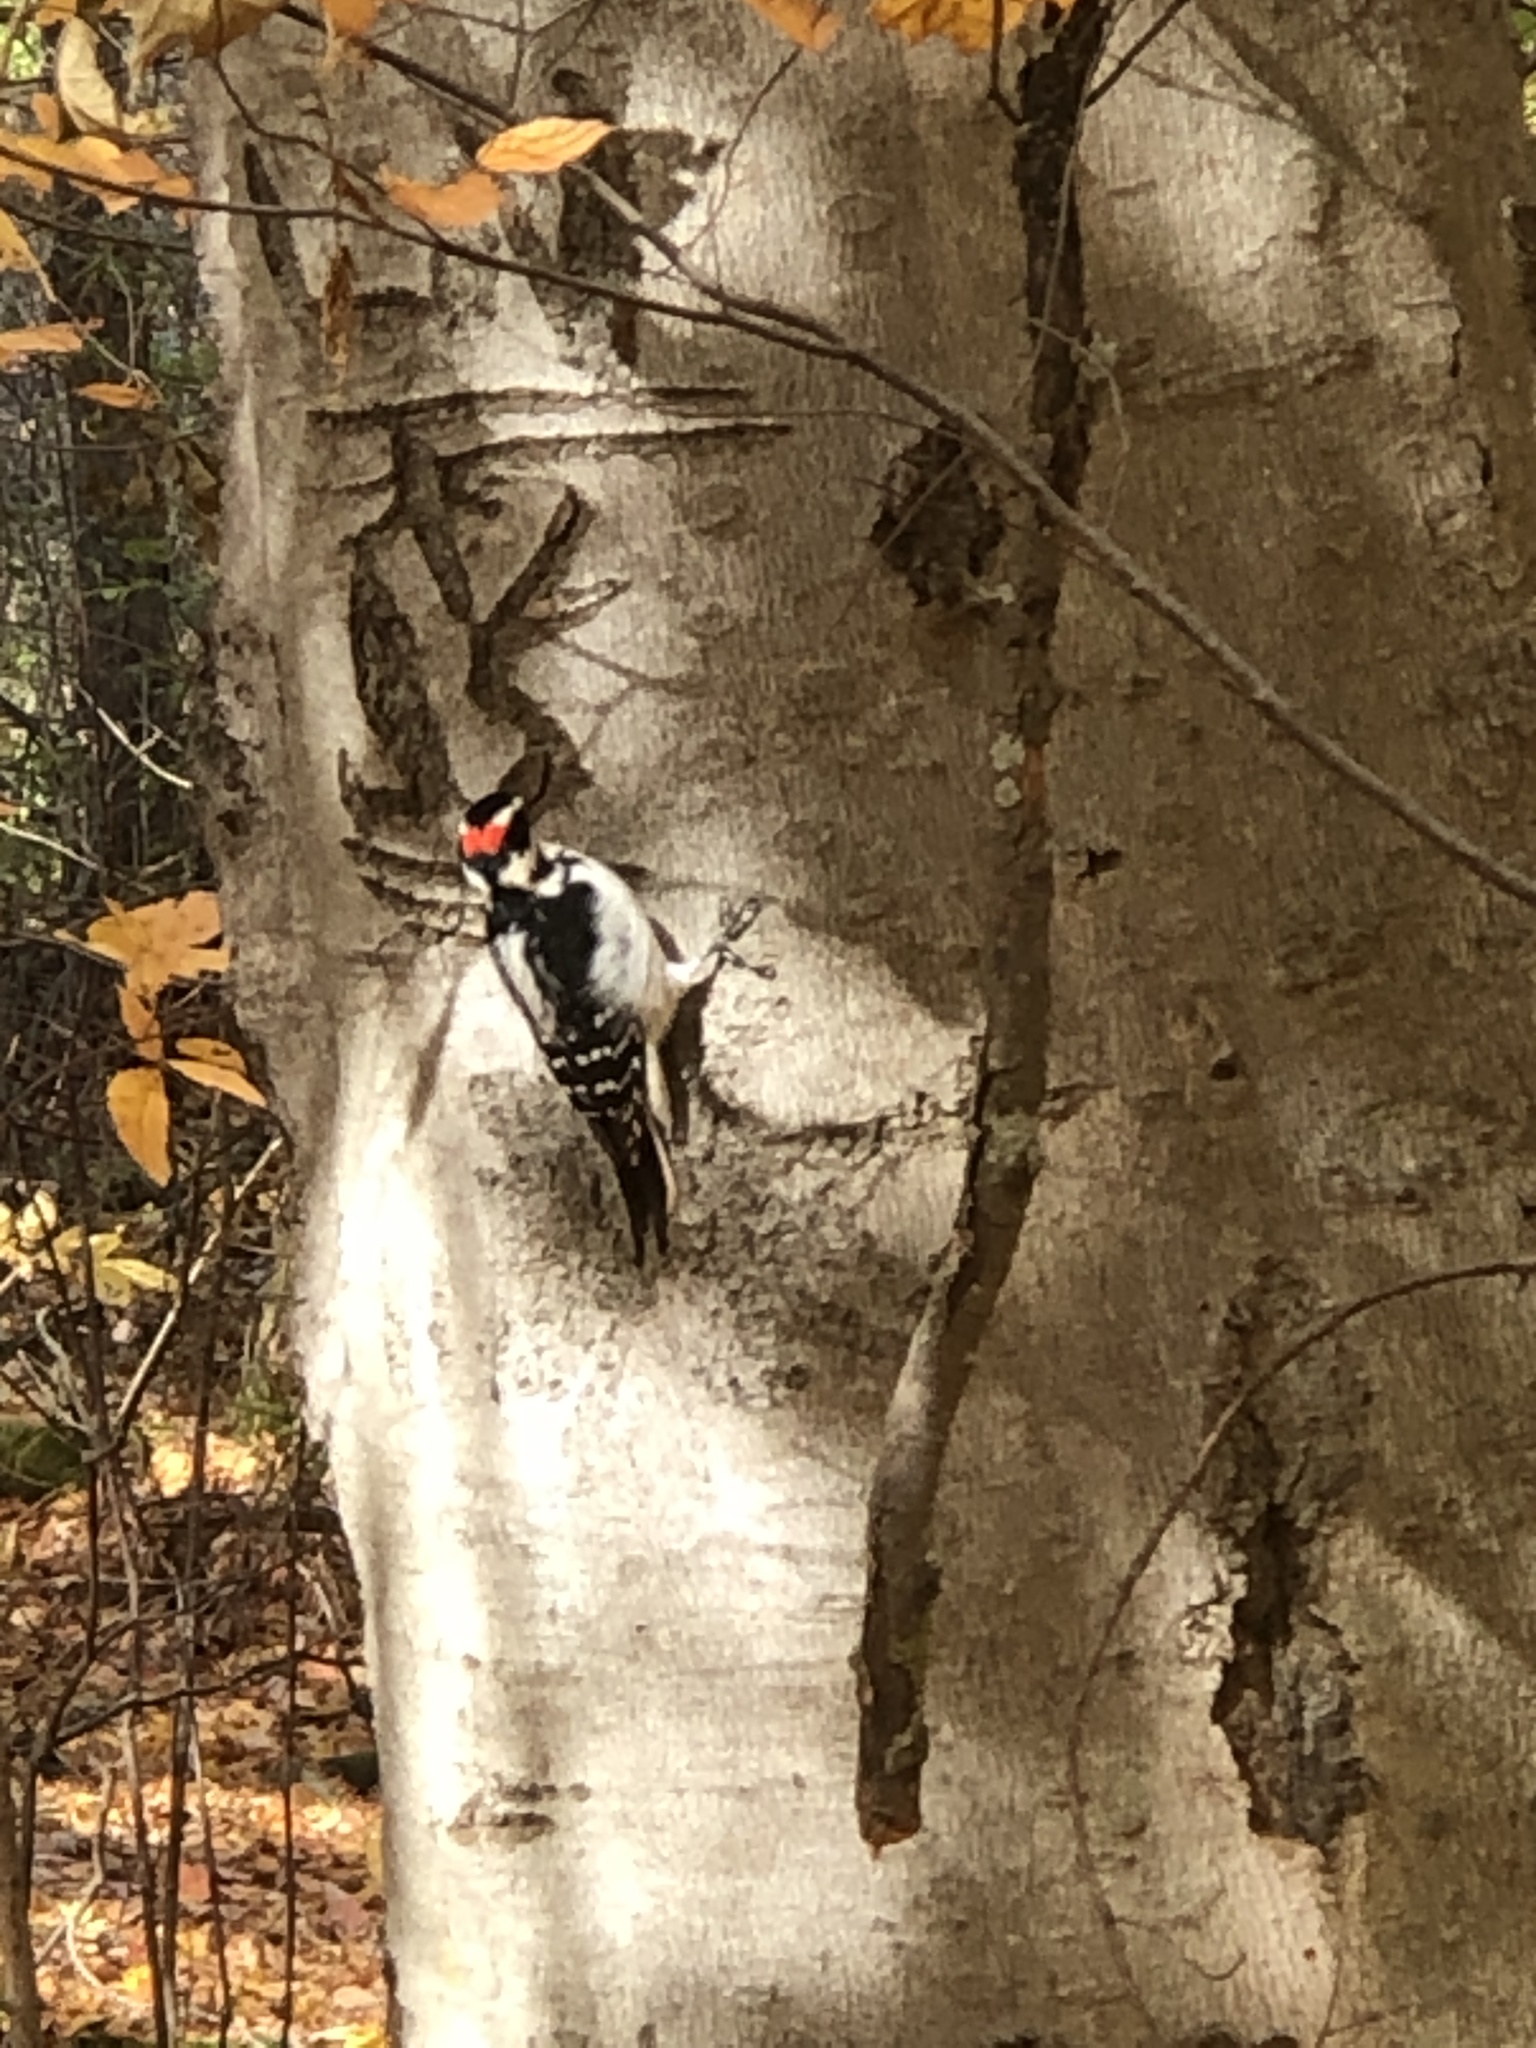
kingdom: Animalia
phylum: Chordata
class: Aves
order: Piciformes
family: Picidae
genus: Leuconotopicus
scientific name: Leuconotopicus villosus
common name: Hairy woodpecker
